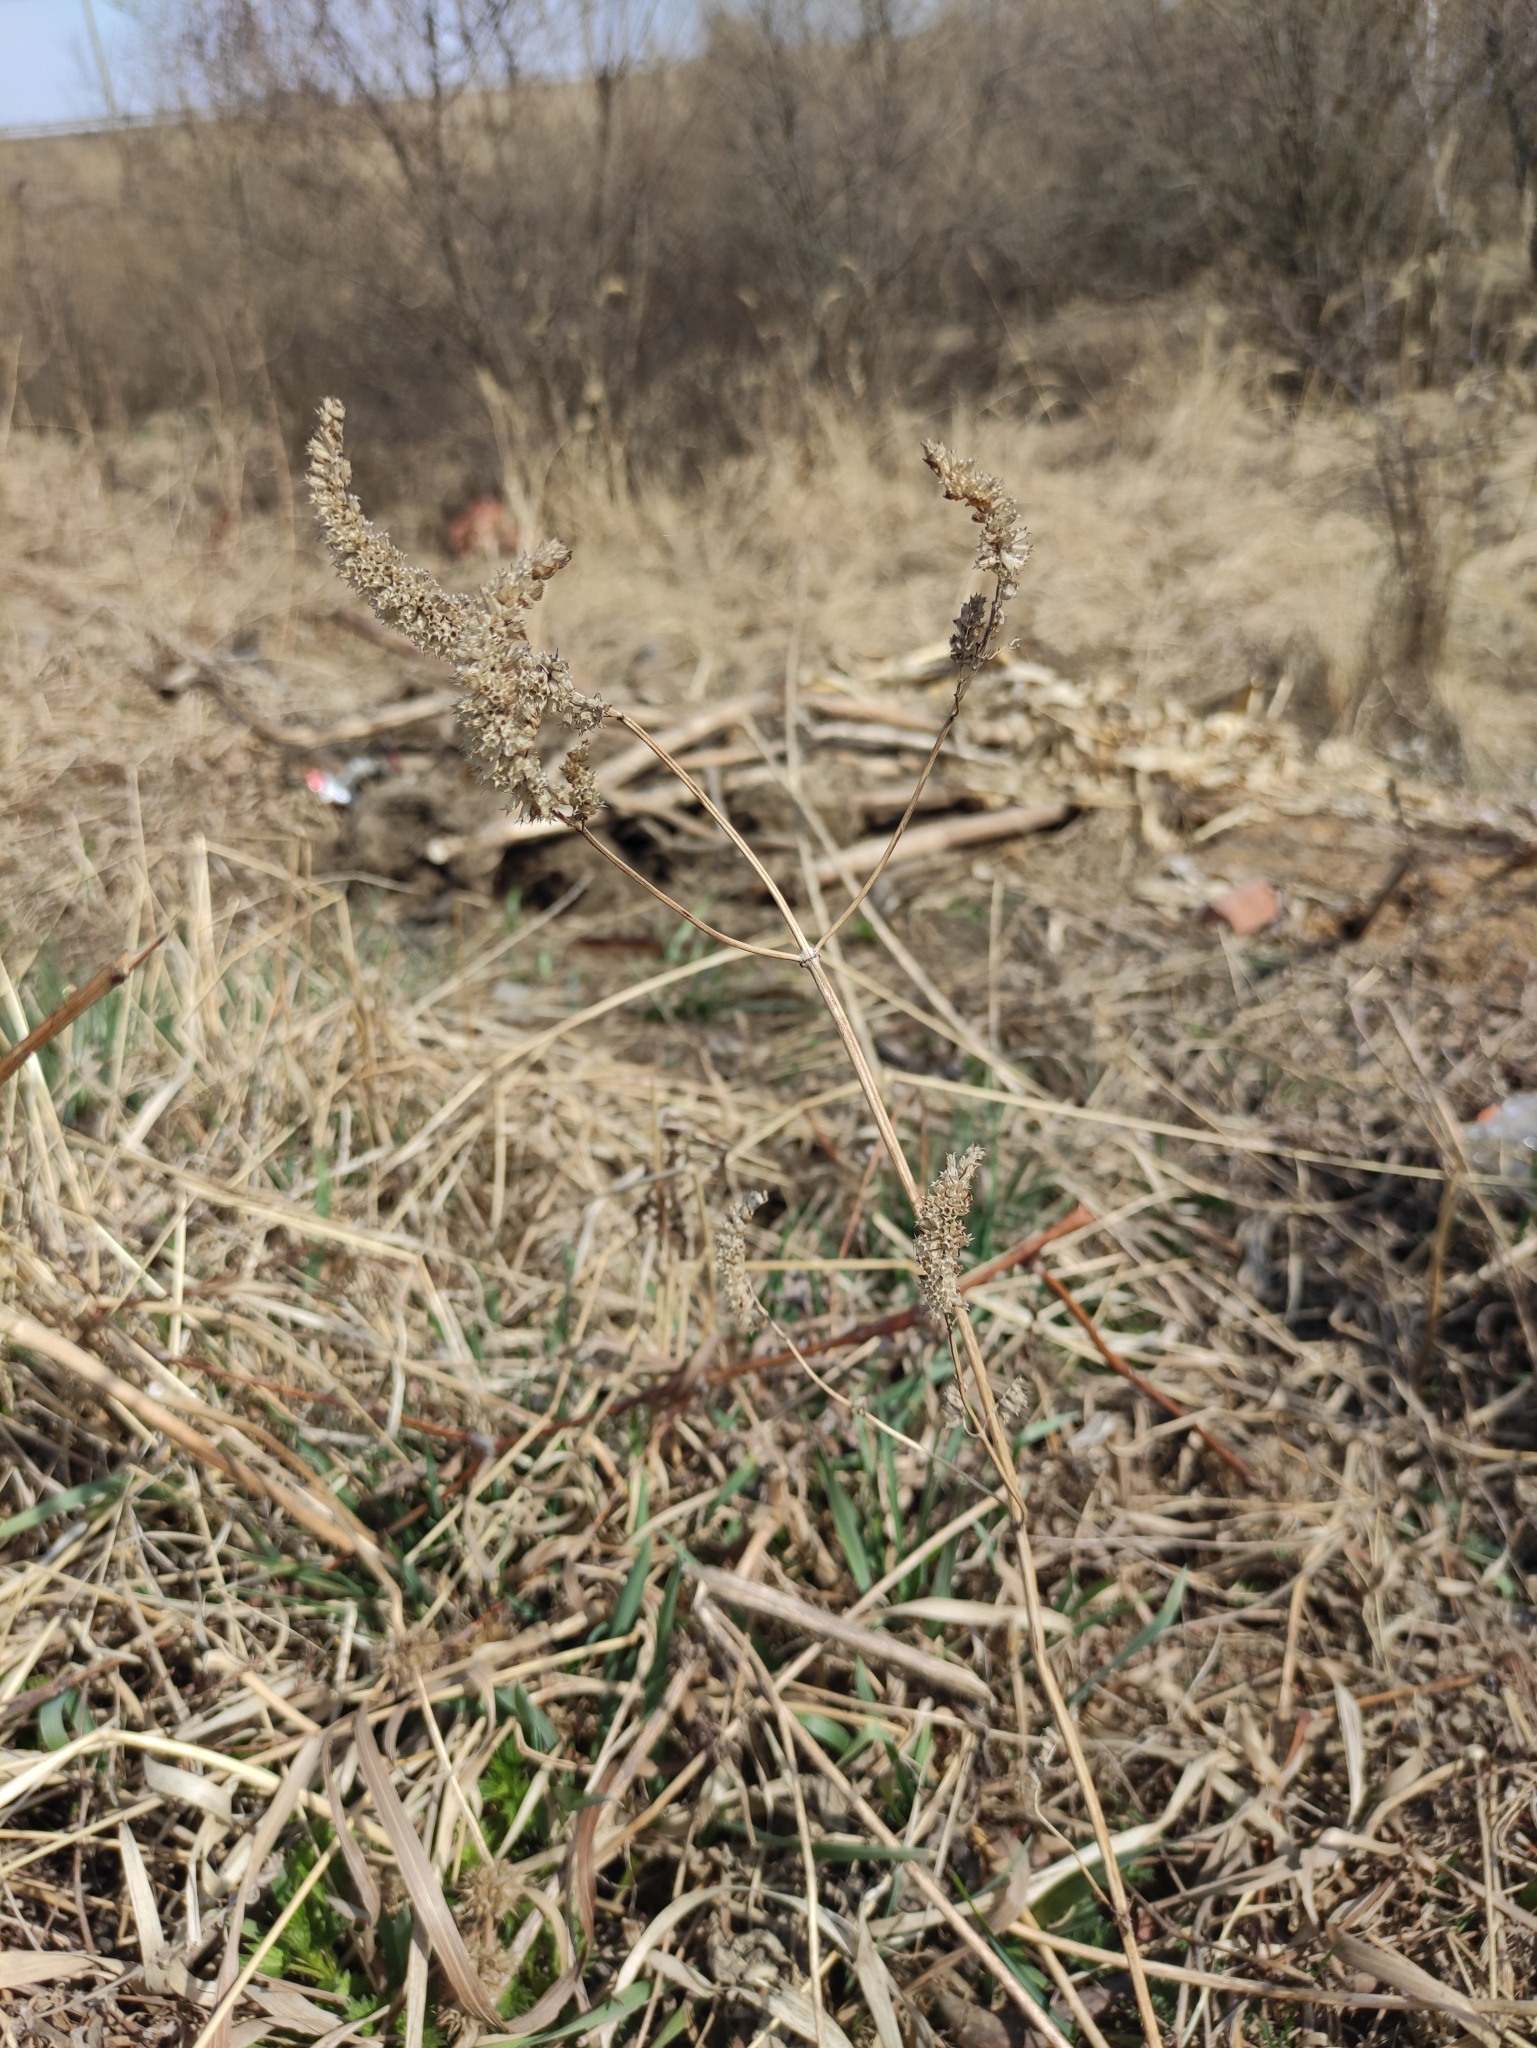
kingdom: Plantae
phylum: Tracheophyta
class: Magnoliopsida
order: Lamiales
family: Lamiaceae
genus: Elsholtzia
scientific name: Elsholtzia ciliata
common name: Ciliate elsholtzia
